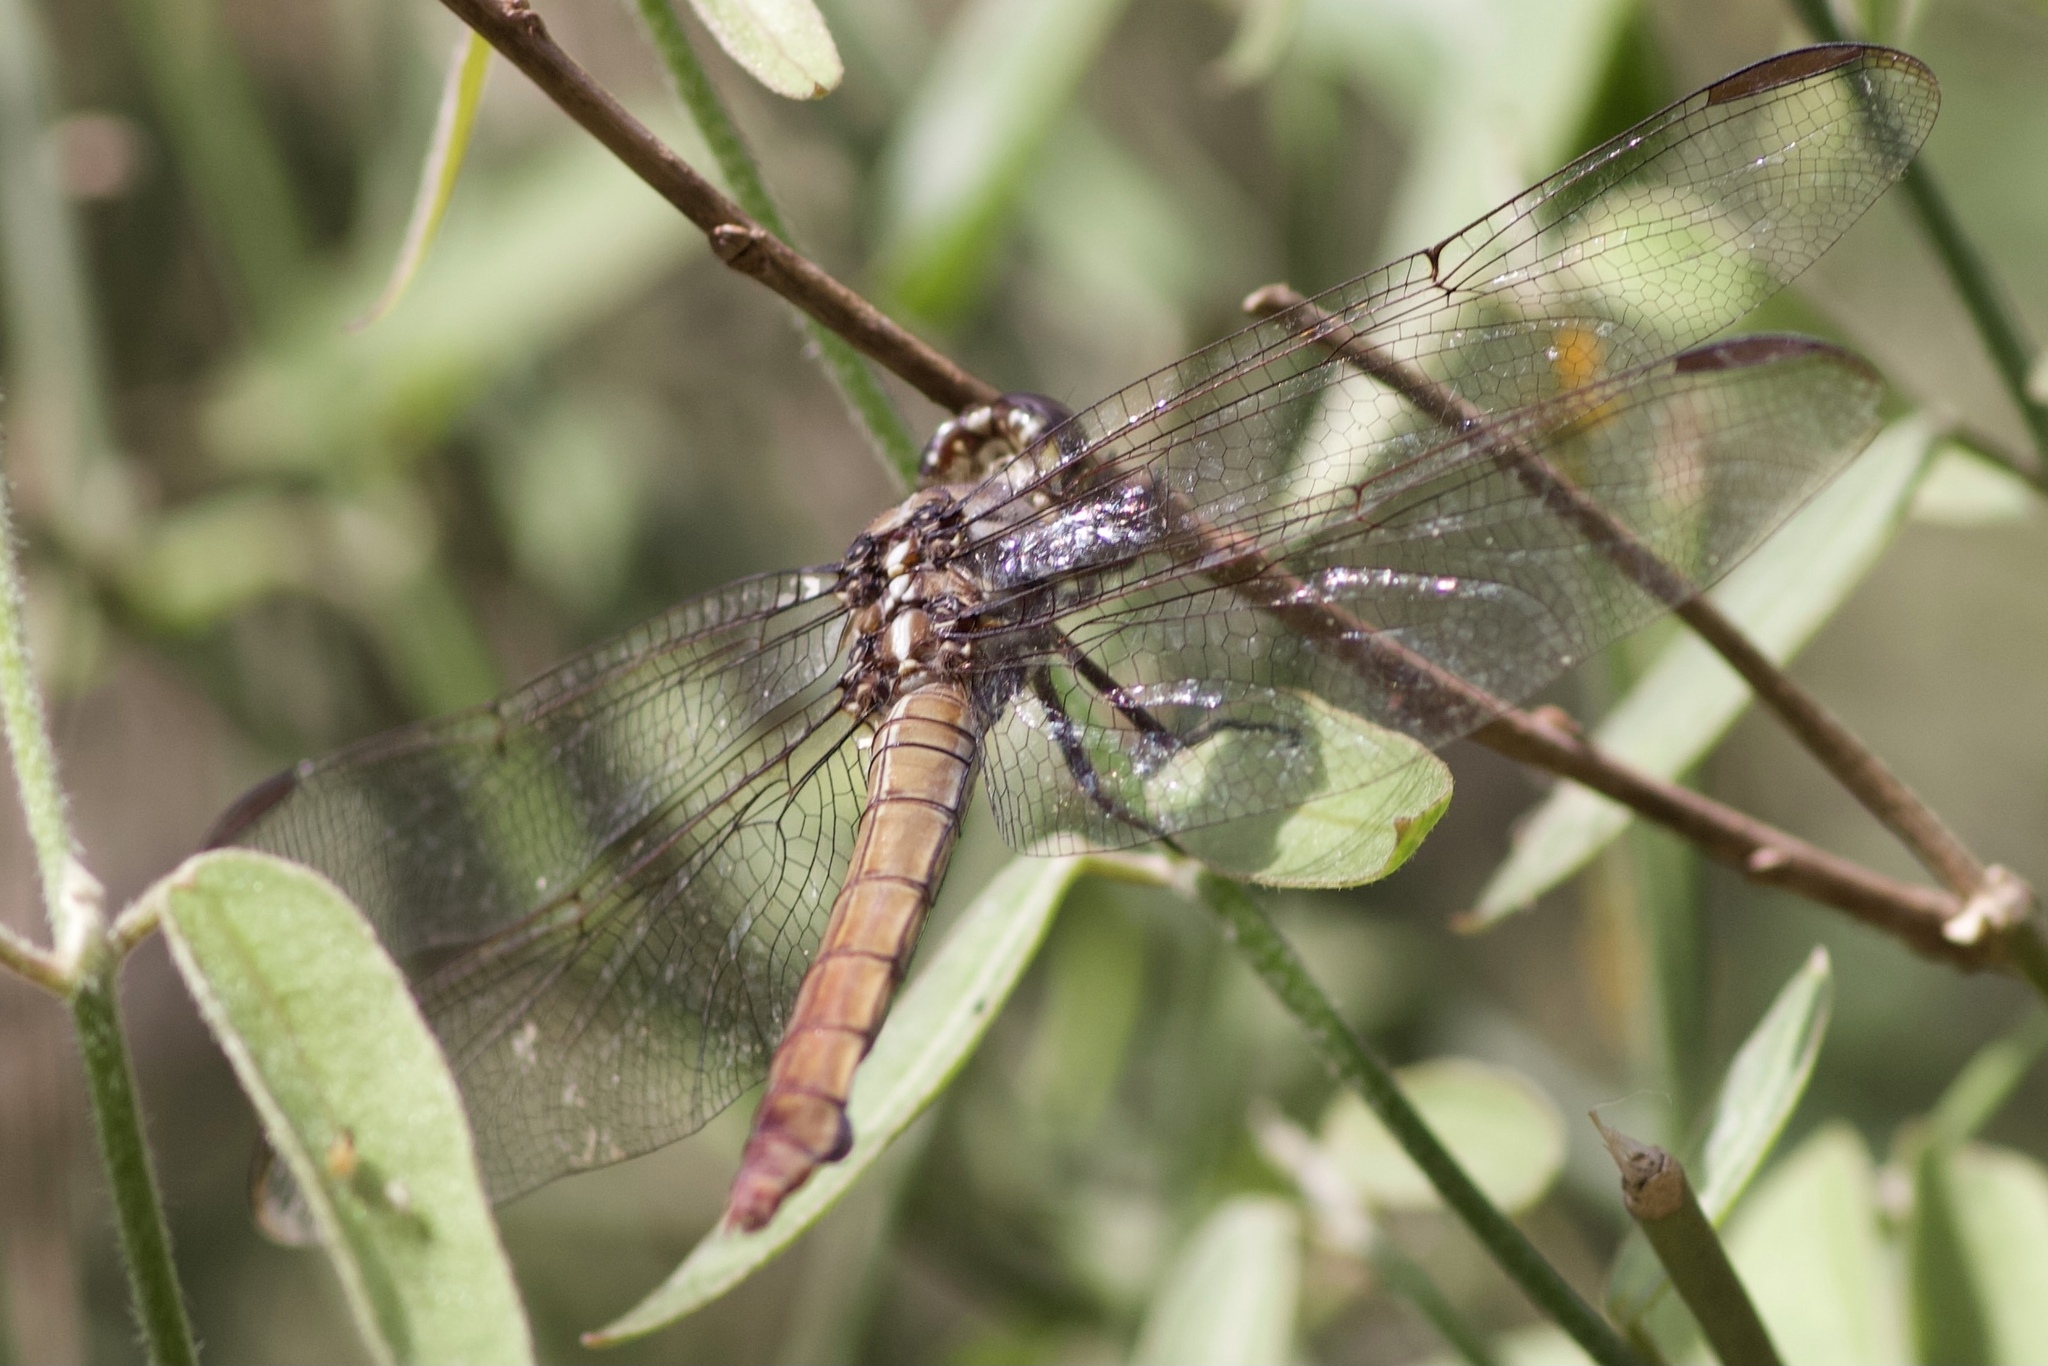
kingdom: Animalia
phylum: Arthropoda
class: Insecta
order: Odonata
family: Libellulidae
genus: Orthemis
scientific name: Orthemis ferruginea
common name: Roseate skimmer
